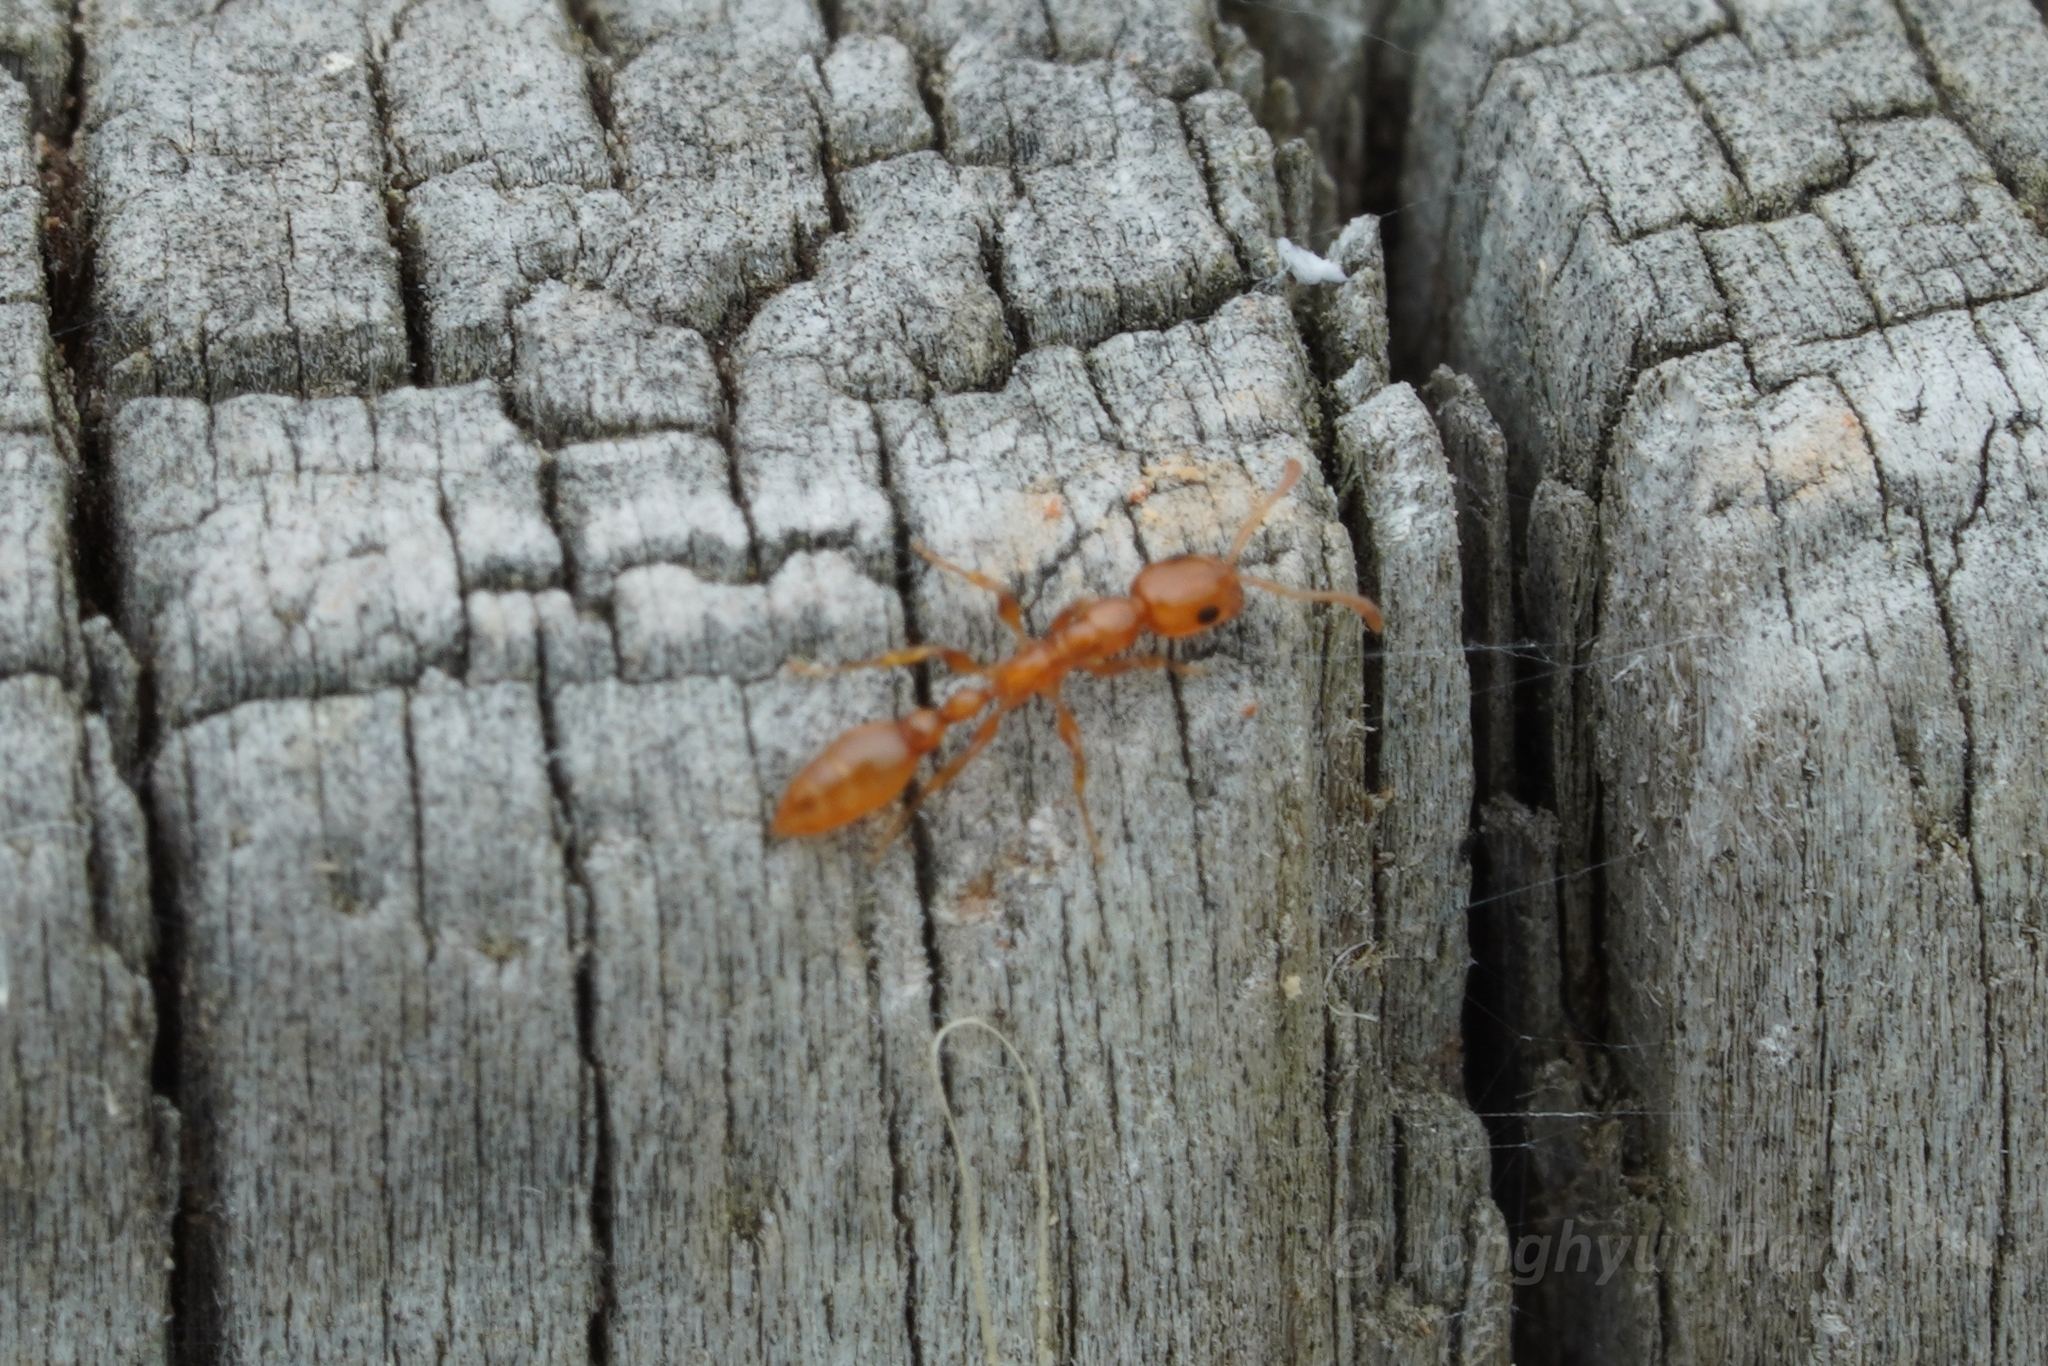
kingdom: Animalia
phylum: Arthropoda
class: Insecta
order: Hymenoptera
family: Formicidae
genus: Tetraponera
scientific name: Tetraponera emeryi
